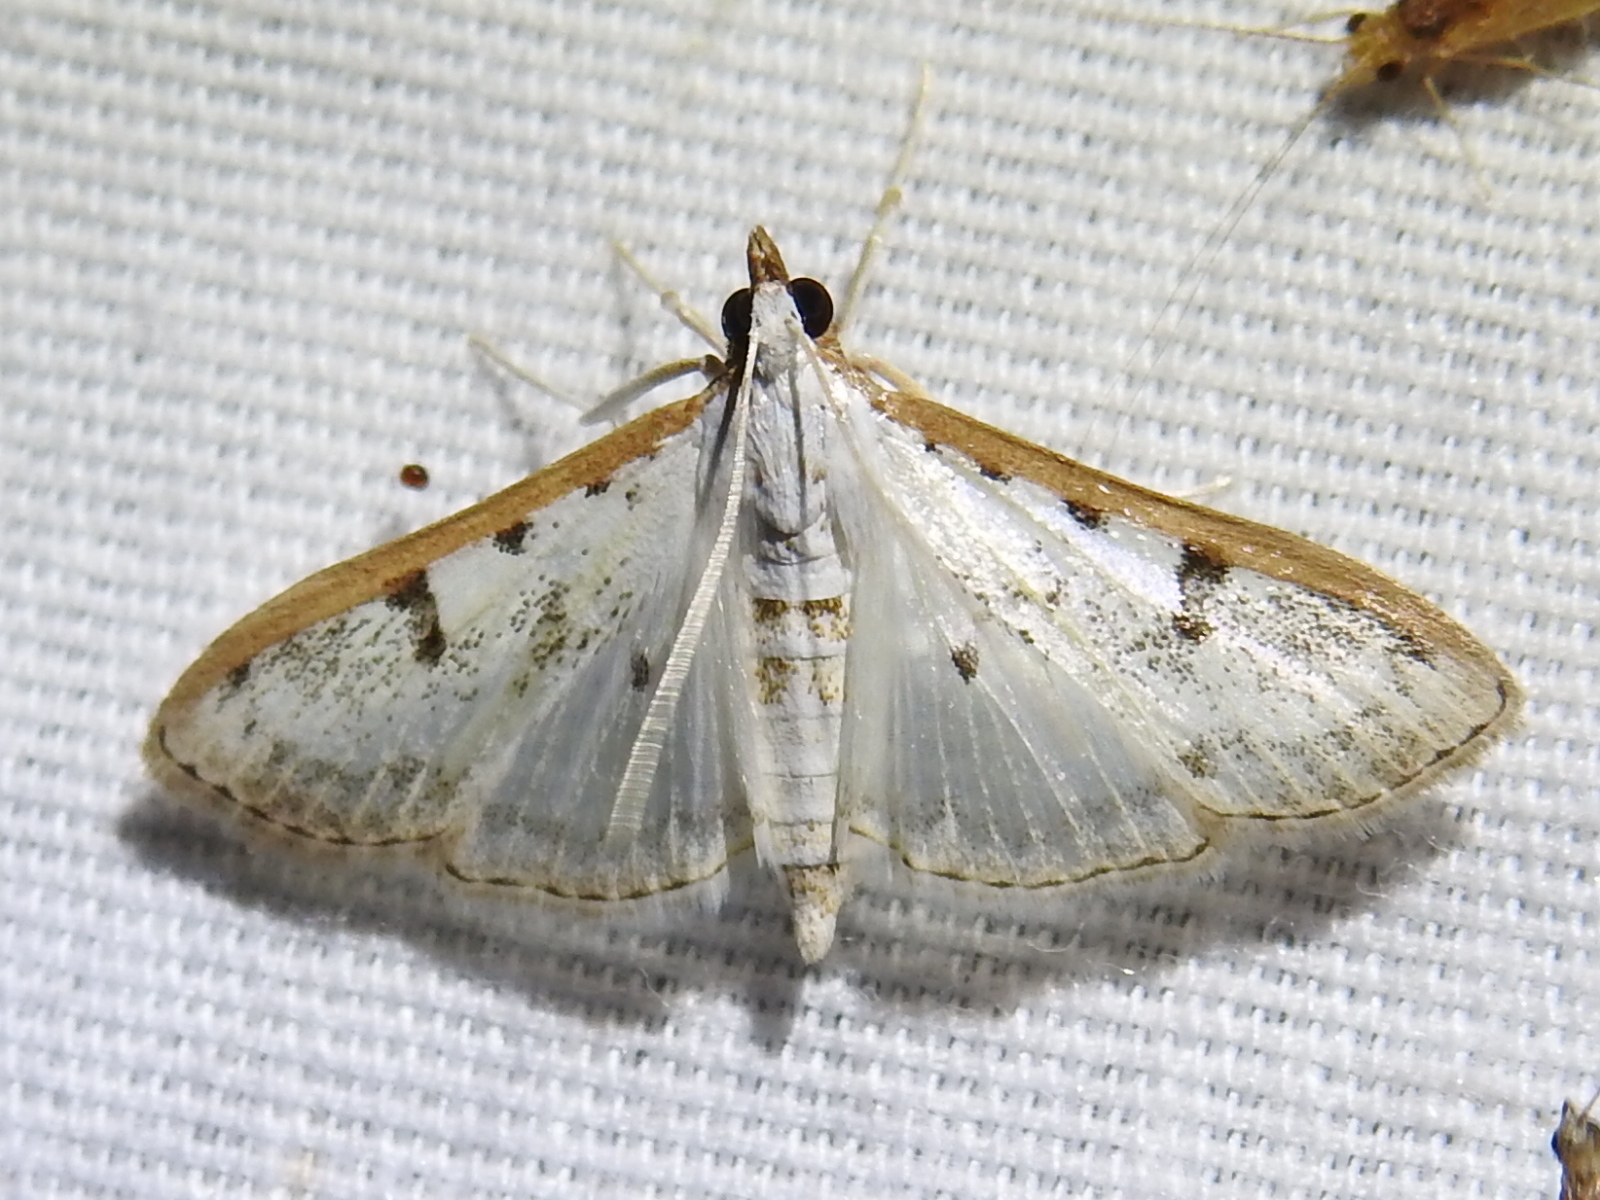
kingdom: Animalia
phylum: Arthropoda
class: Insecta
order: Lepidoptera
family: Crambidae
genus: Palpita
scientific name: Palpita gracilalis
